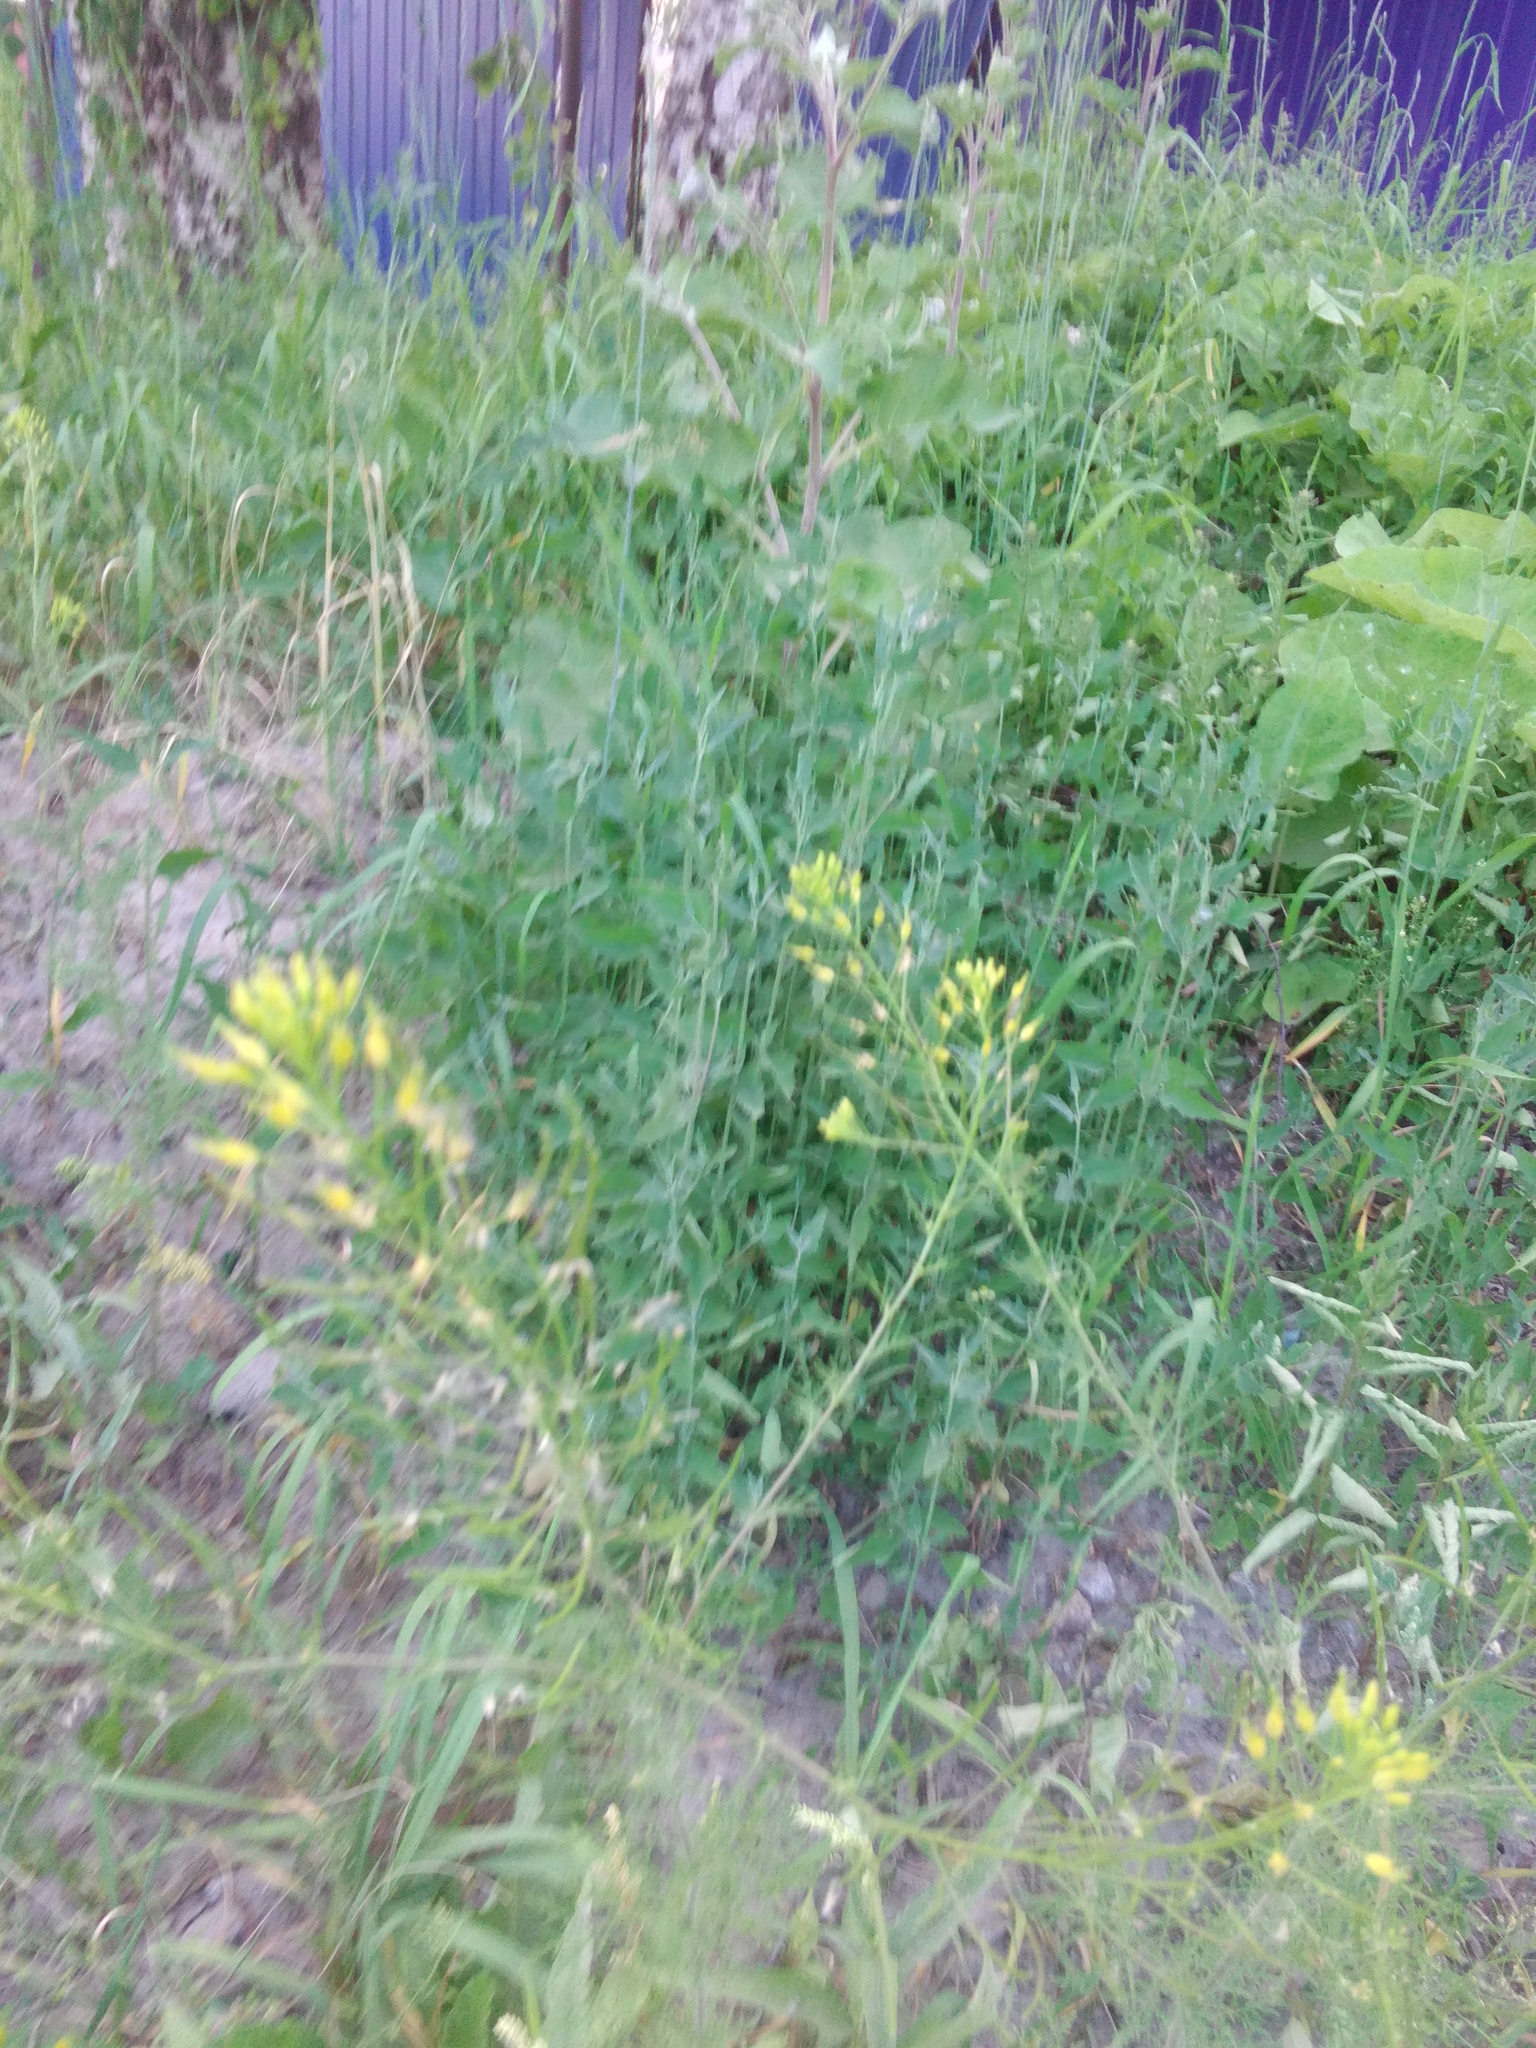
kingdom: Plantae
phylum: Tracheophyta
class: Magnoliopsida
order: Brassicales
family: Brassicaceae
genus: Descurainia
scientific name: Descurainia sophia
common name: Flixweed
